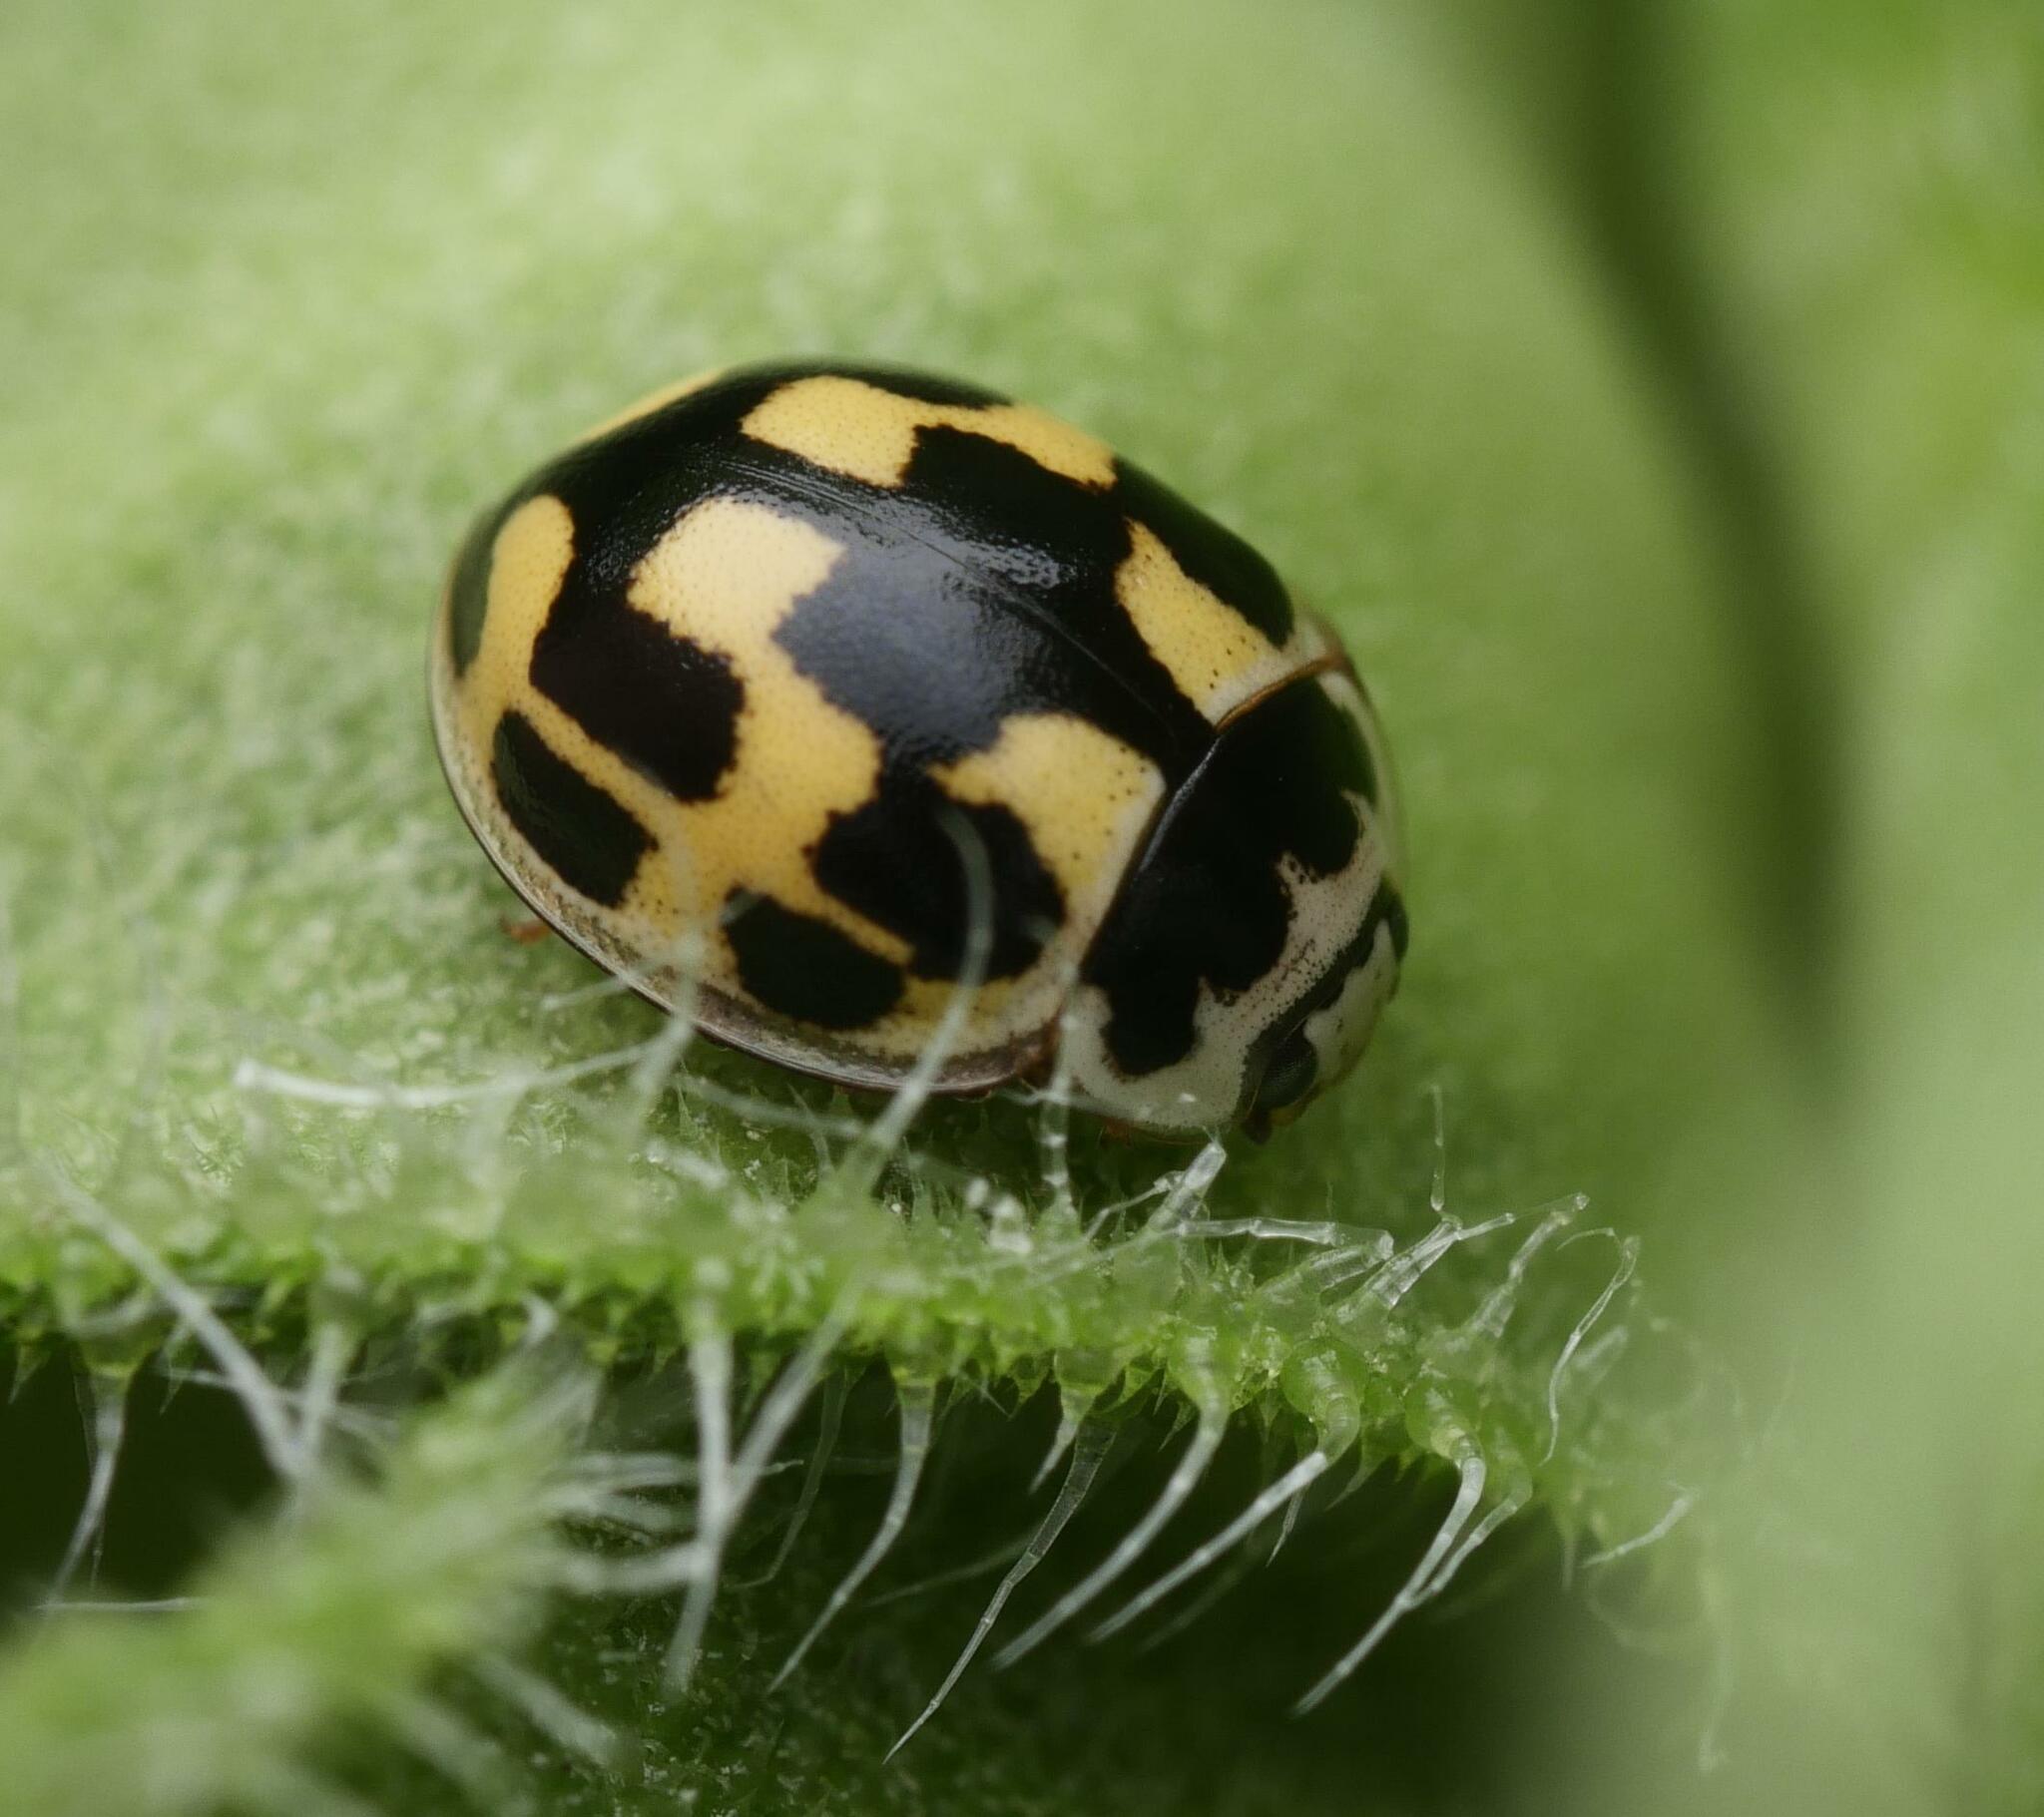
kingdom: Animalia
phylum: Arthropoda
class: Insecta
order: Coleoptera
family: Coccinellidae
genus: Propylaea
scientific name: Propylaea quatuordecimpunctata
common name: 14-spotted ladybird beetle
